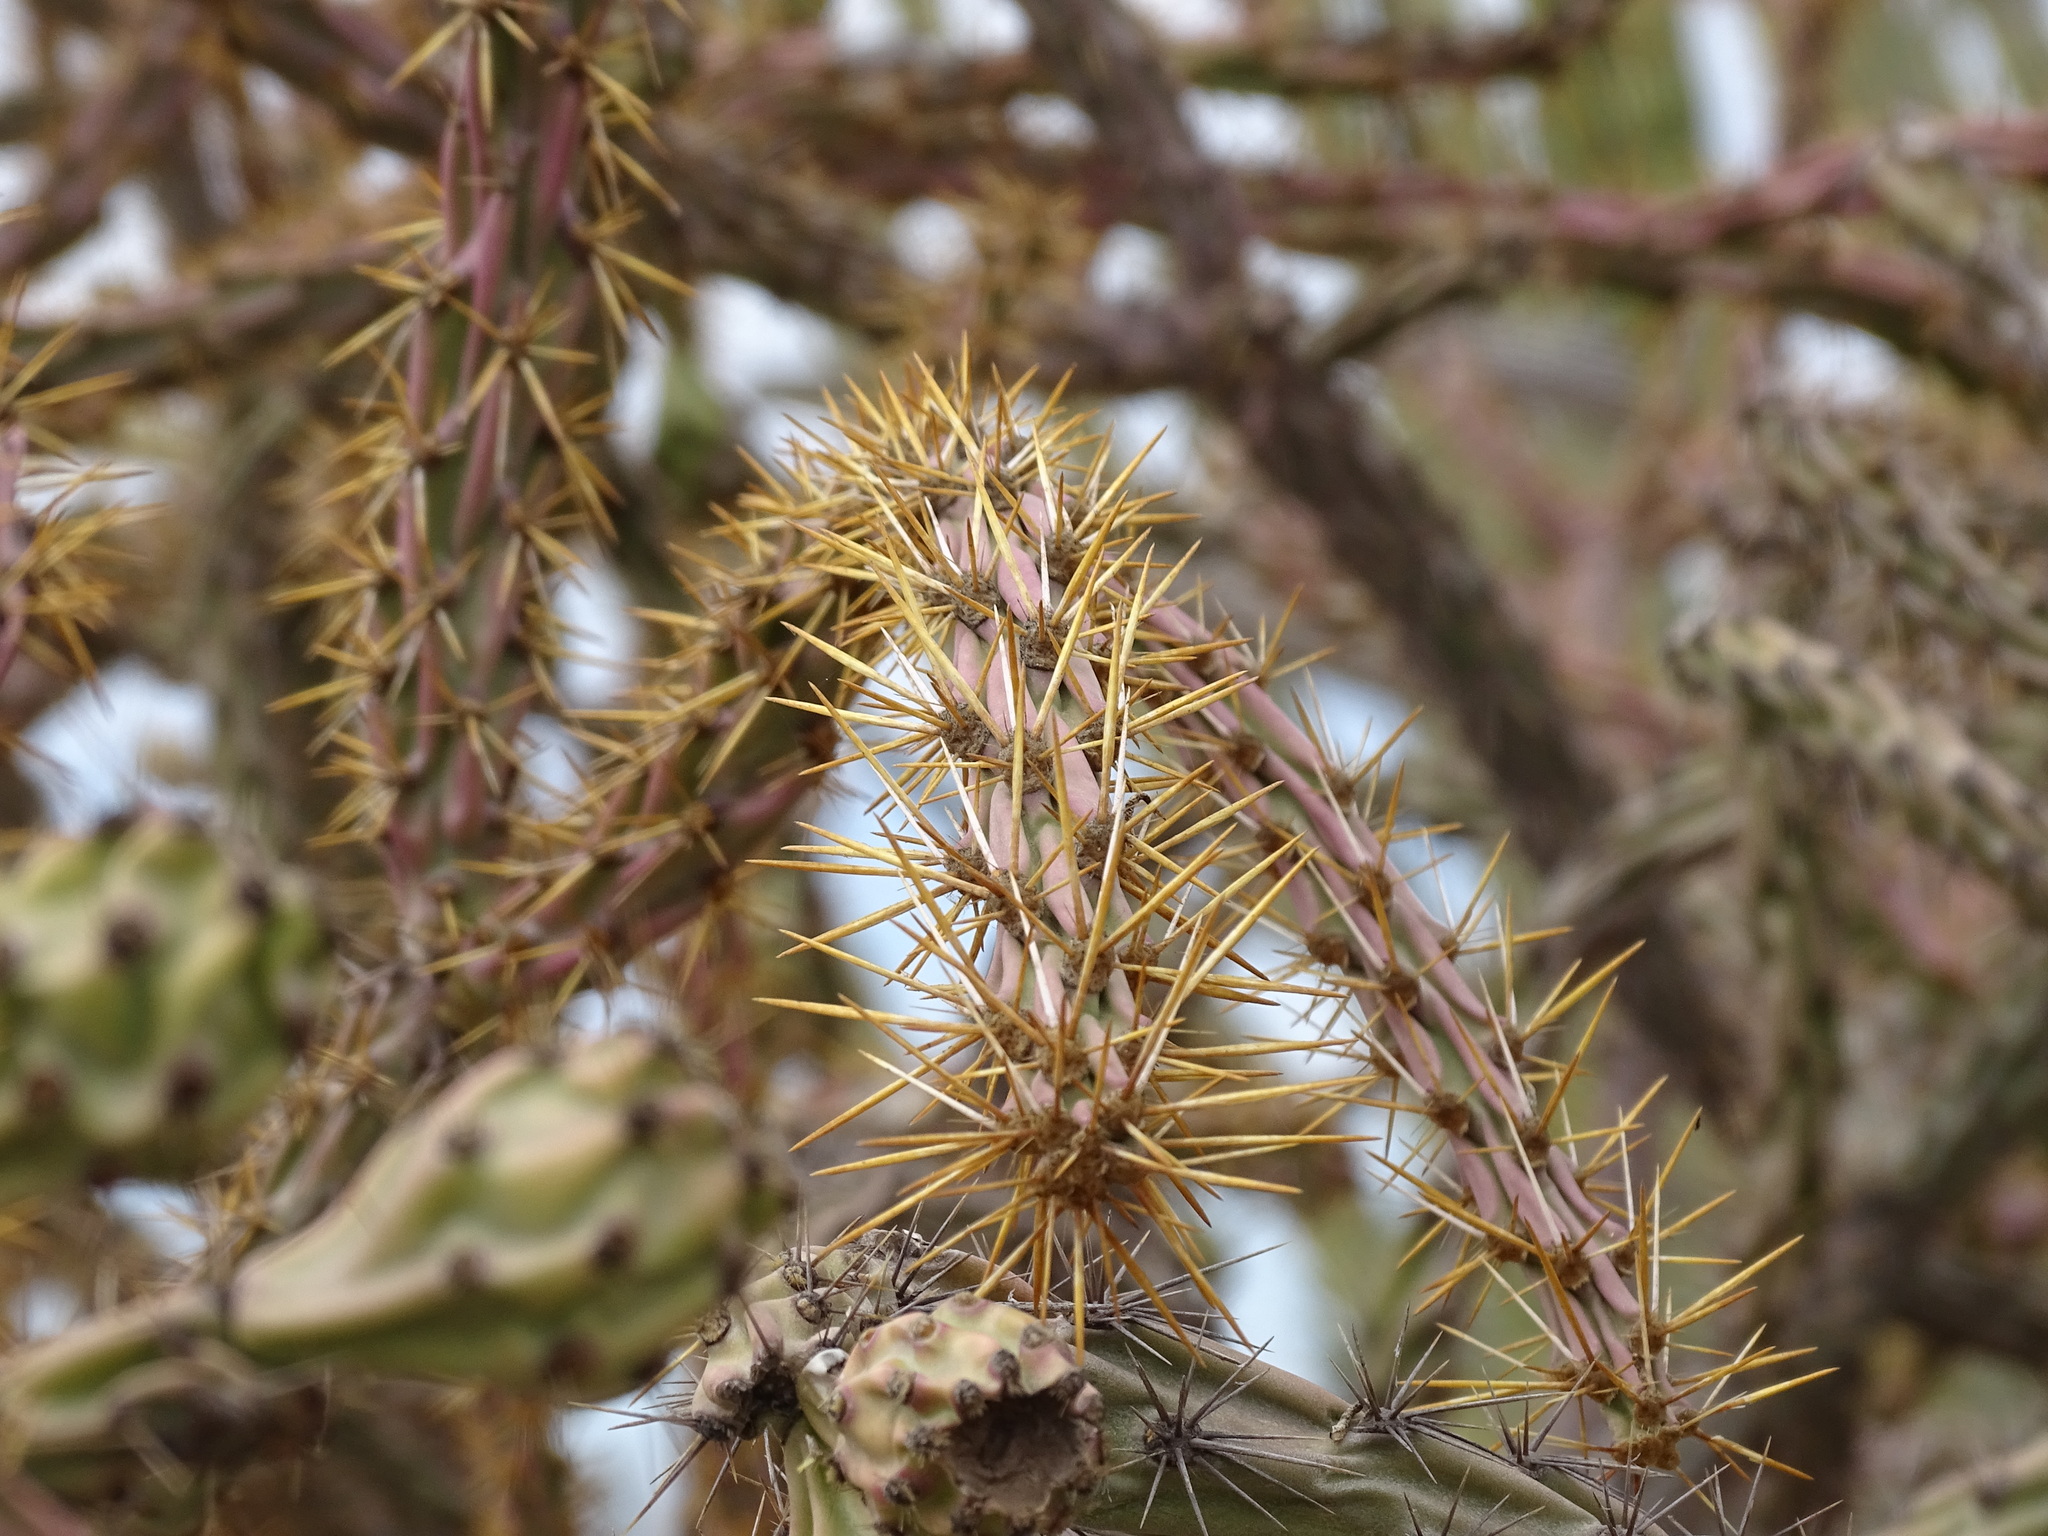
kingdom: Plantae
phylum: Tracheophyta
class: Magnoliopsida
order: Caryophyllales
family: Cactaceae
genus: Cylindropuntia
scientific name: Cylindropuntia thurberi
